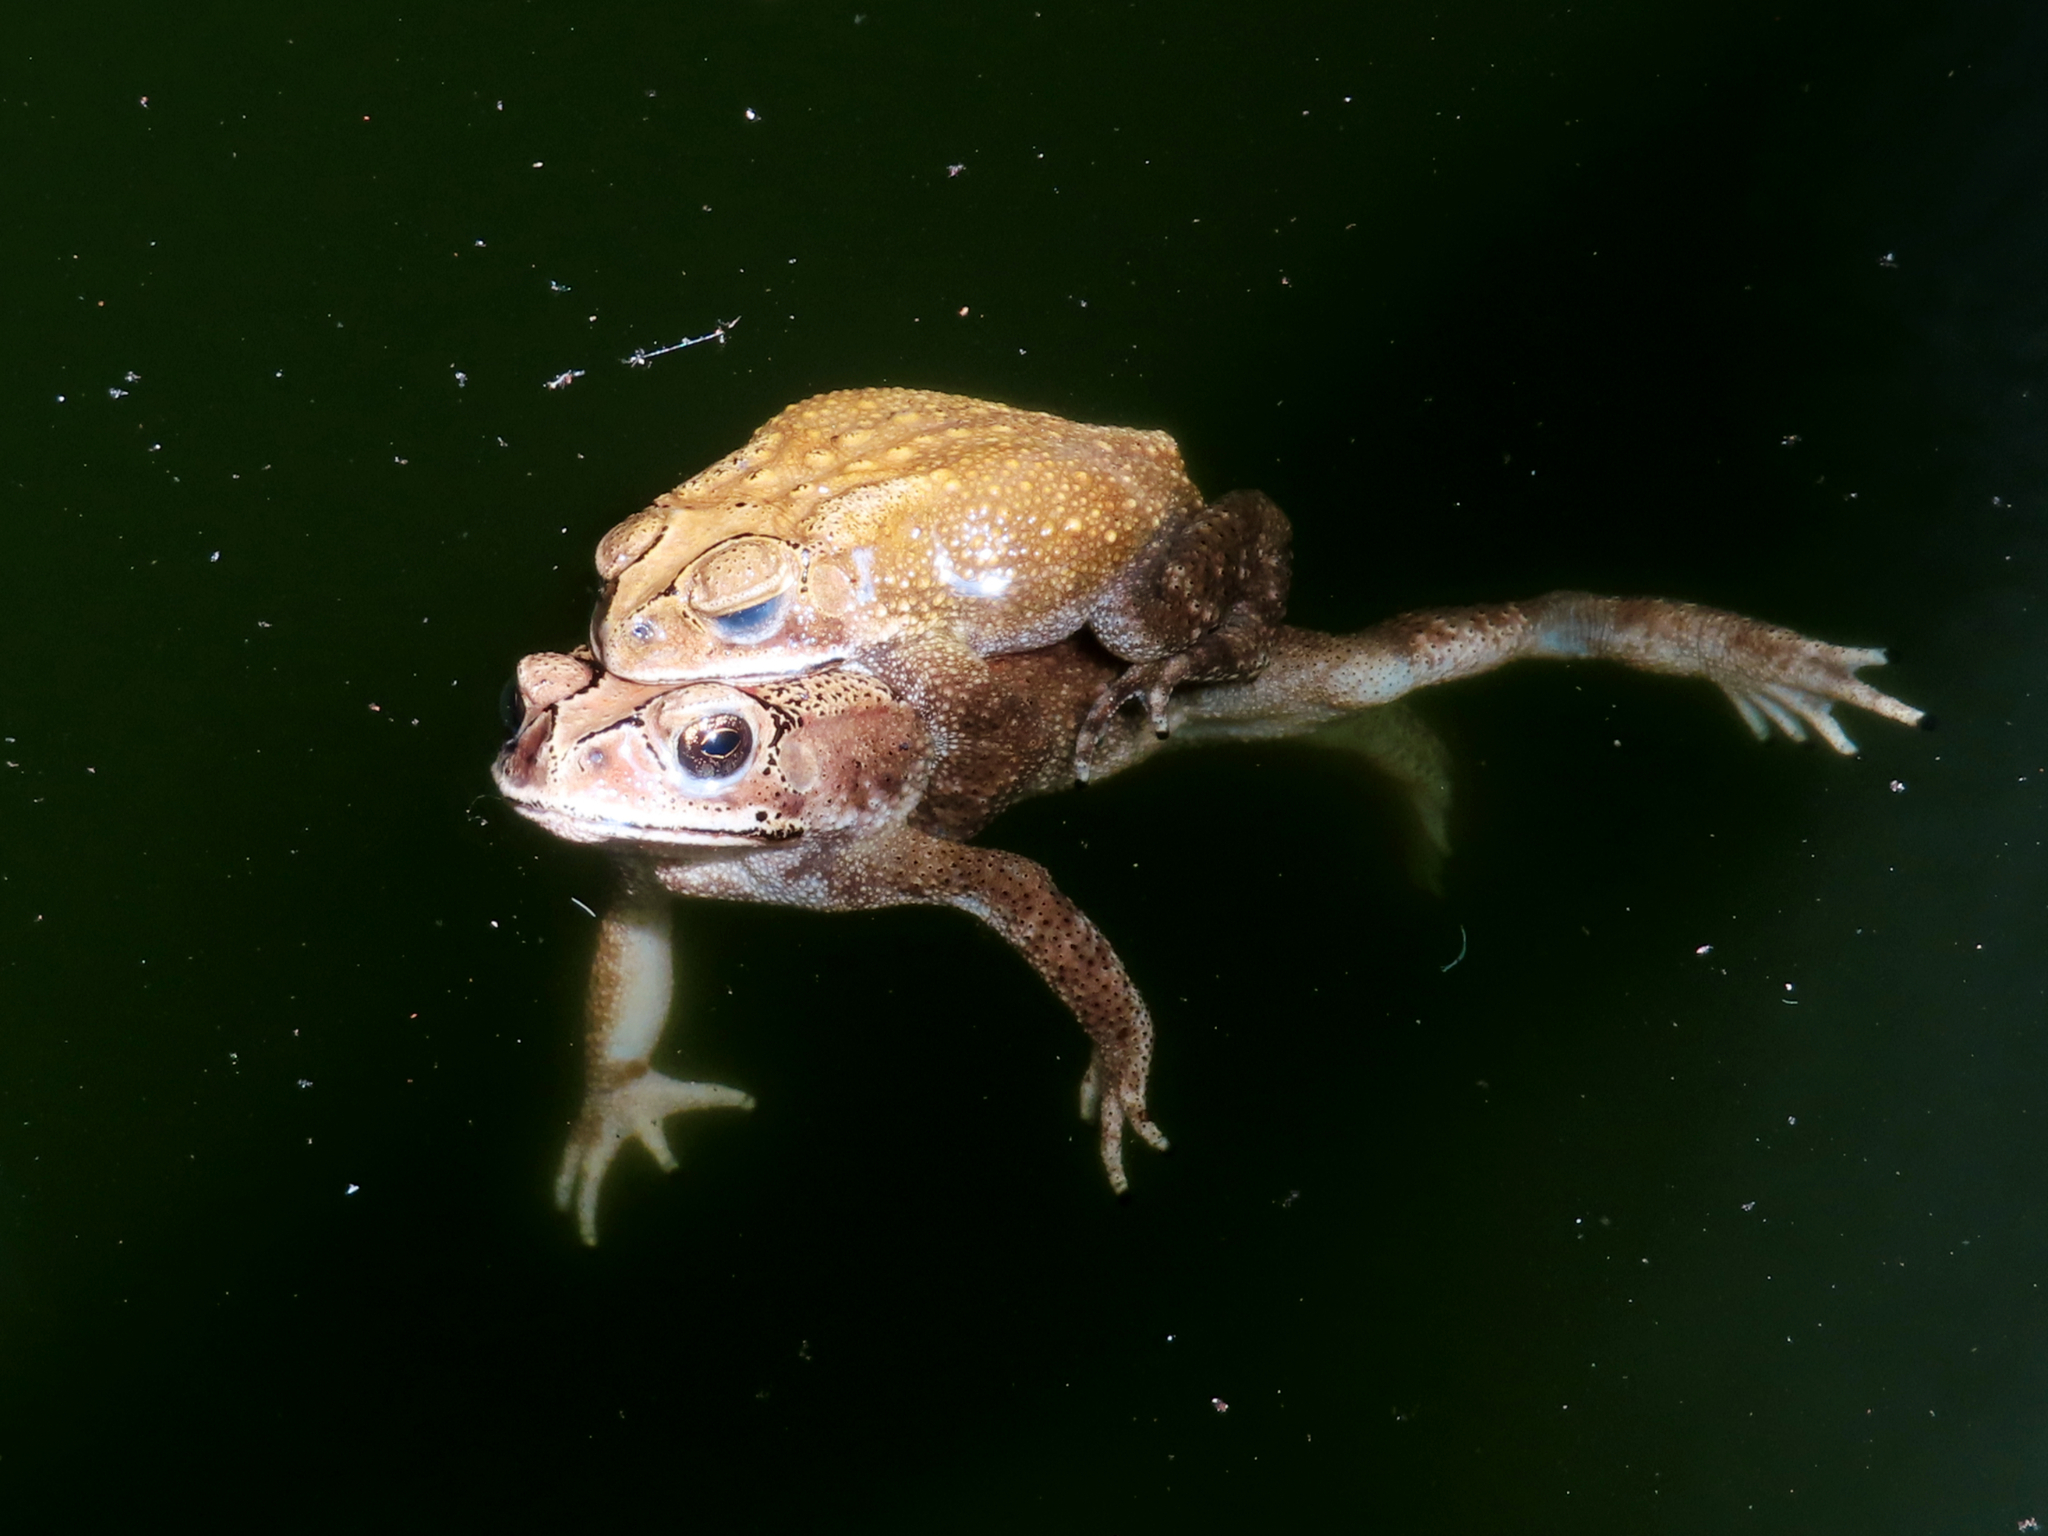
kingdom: Animalia
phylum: Chordata
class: Amphibia
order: Anura
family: Bufonidae
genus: Duttaphrynus
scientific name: Duttaphrynus melanostictus
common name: Common sunda toad
